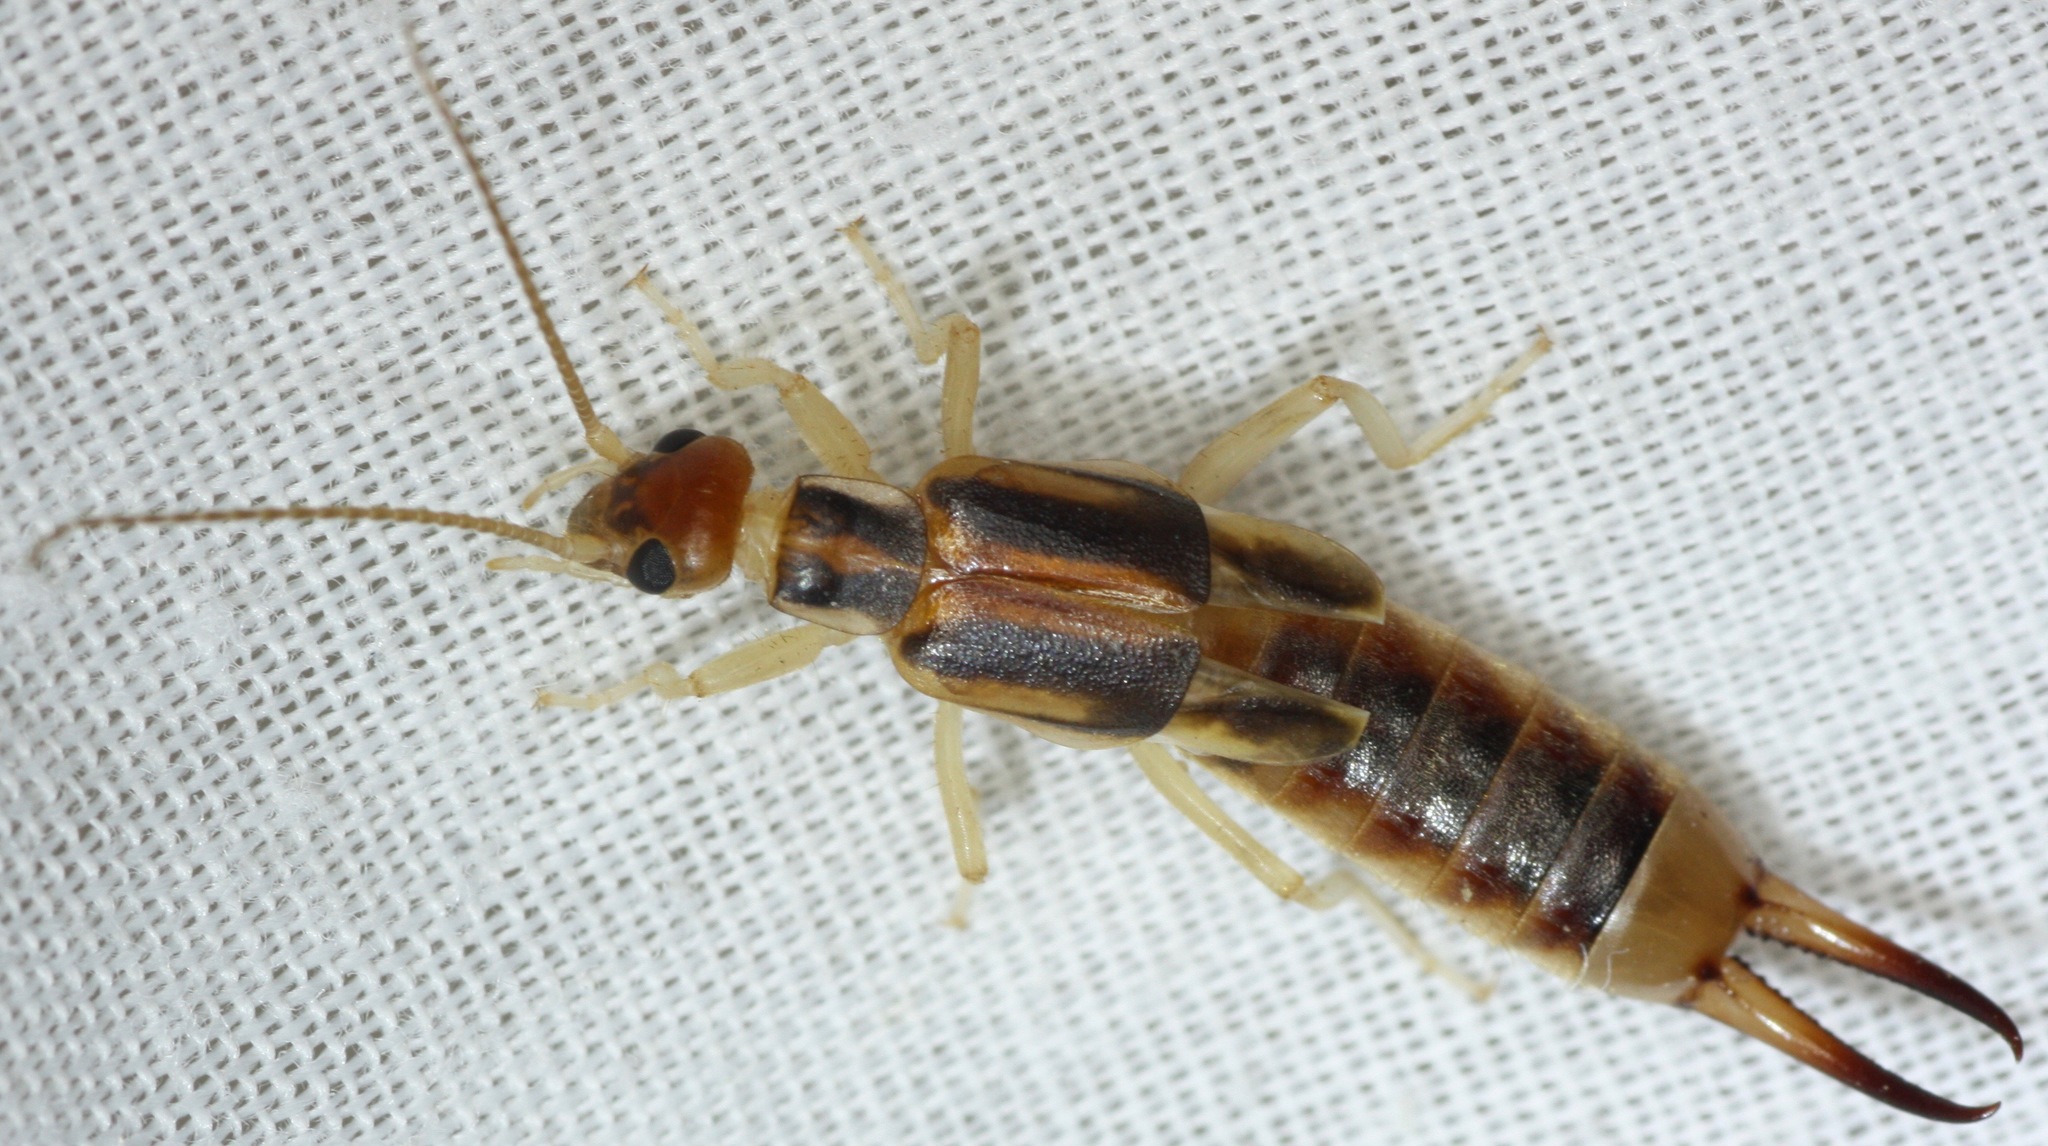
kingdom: Animalia
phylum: Arthropoda
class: Insecta
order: Dermaptera
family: Labiduridae
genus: Labidura
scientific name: Labidura riparia
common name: Striped earwig
